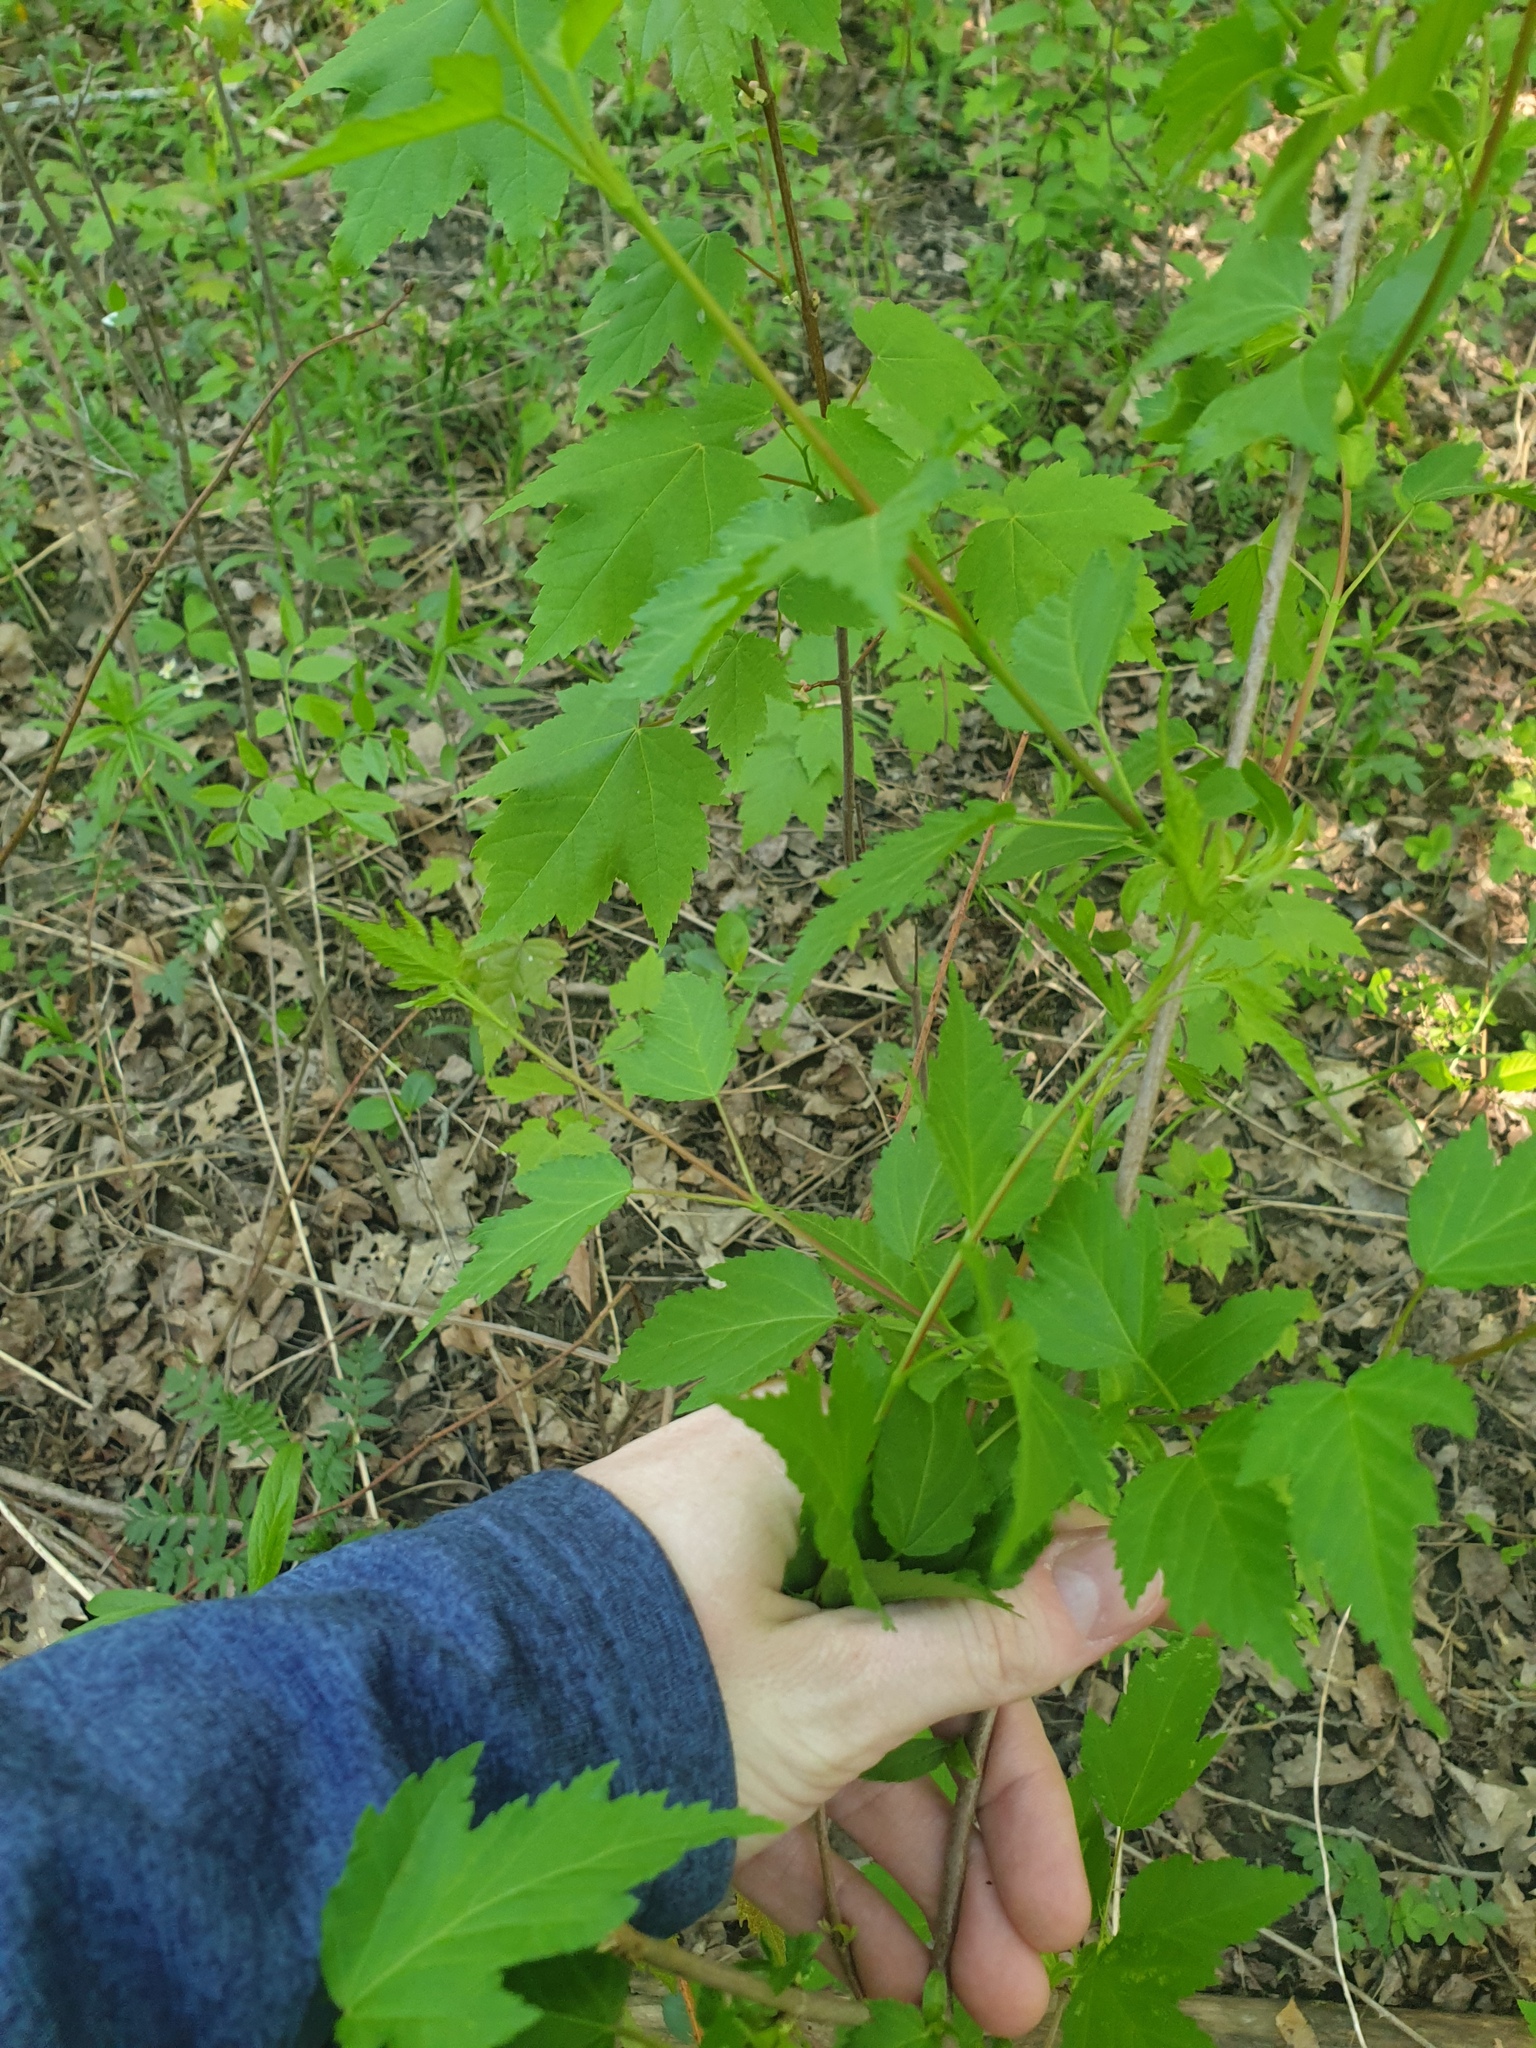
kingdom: Plantae
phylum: Tracheophyta
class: Magnoliopsida
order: Sapindales
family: Sapindaceae
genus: Acer
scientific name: Acer negundo
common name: Ashleaf maple
